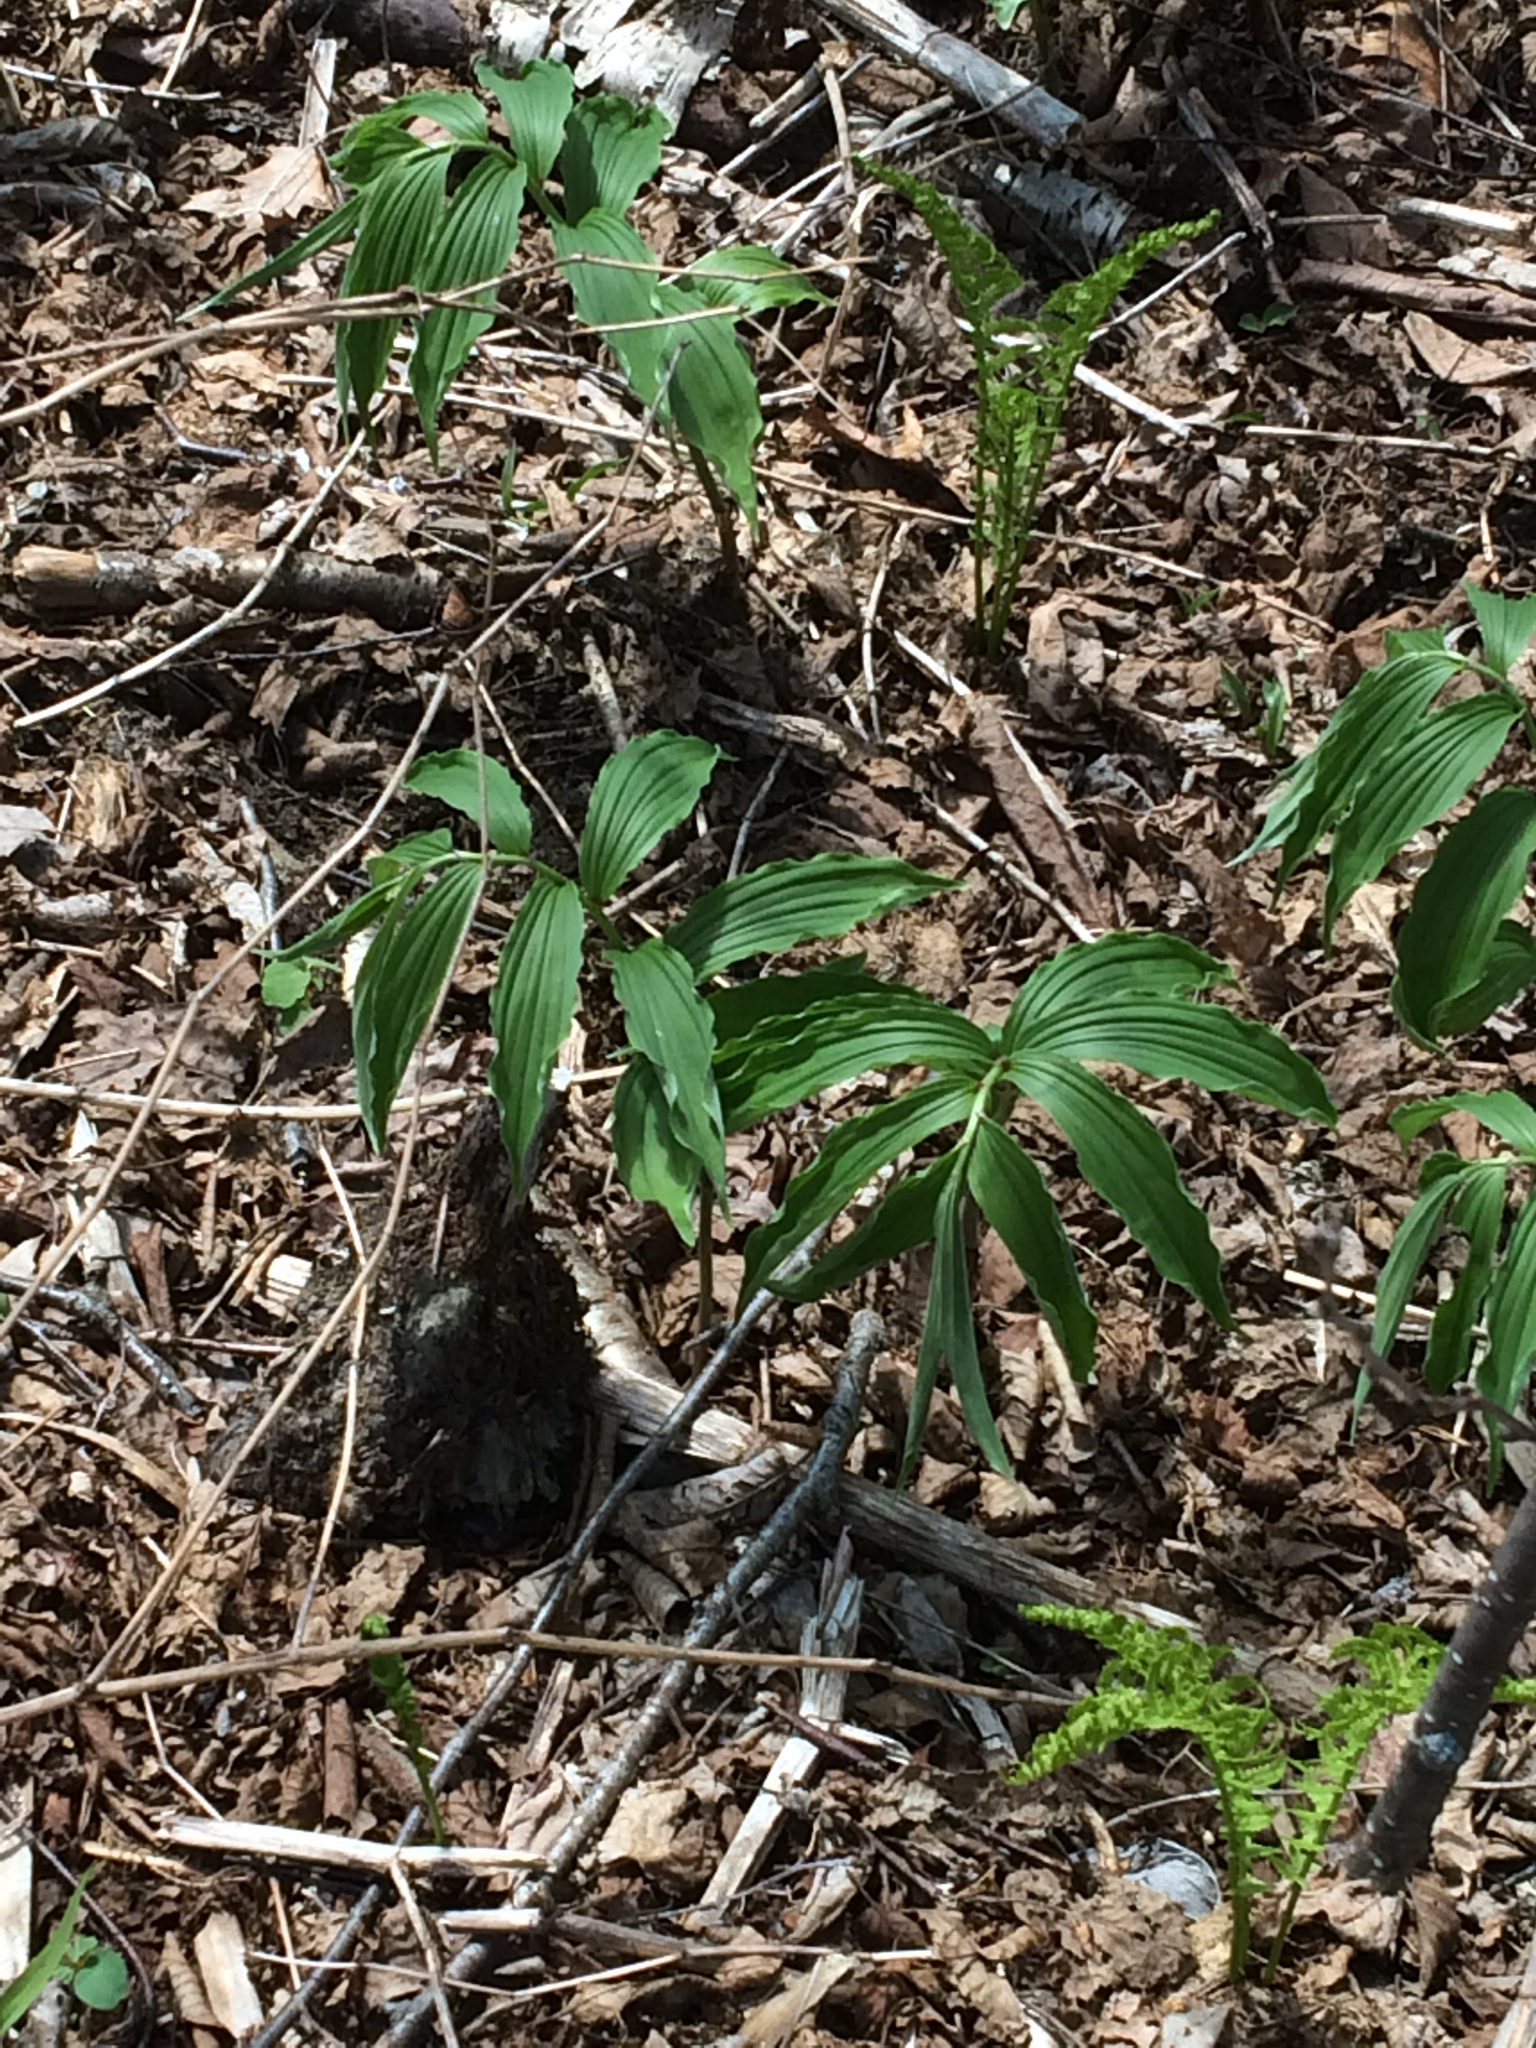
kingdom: Plantae
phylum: Tracheophyta
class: Liliopsida
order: Asparagales
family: Asparagaceae
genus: Maianthemum
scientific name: Maianthemum racemosum
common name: False spikenard
